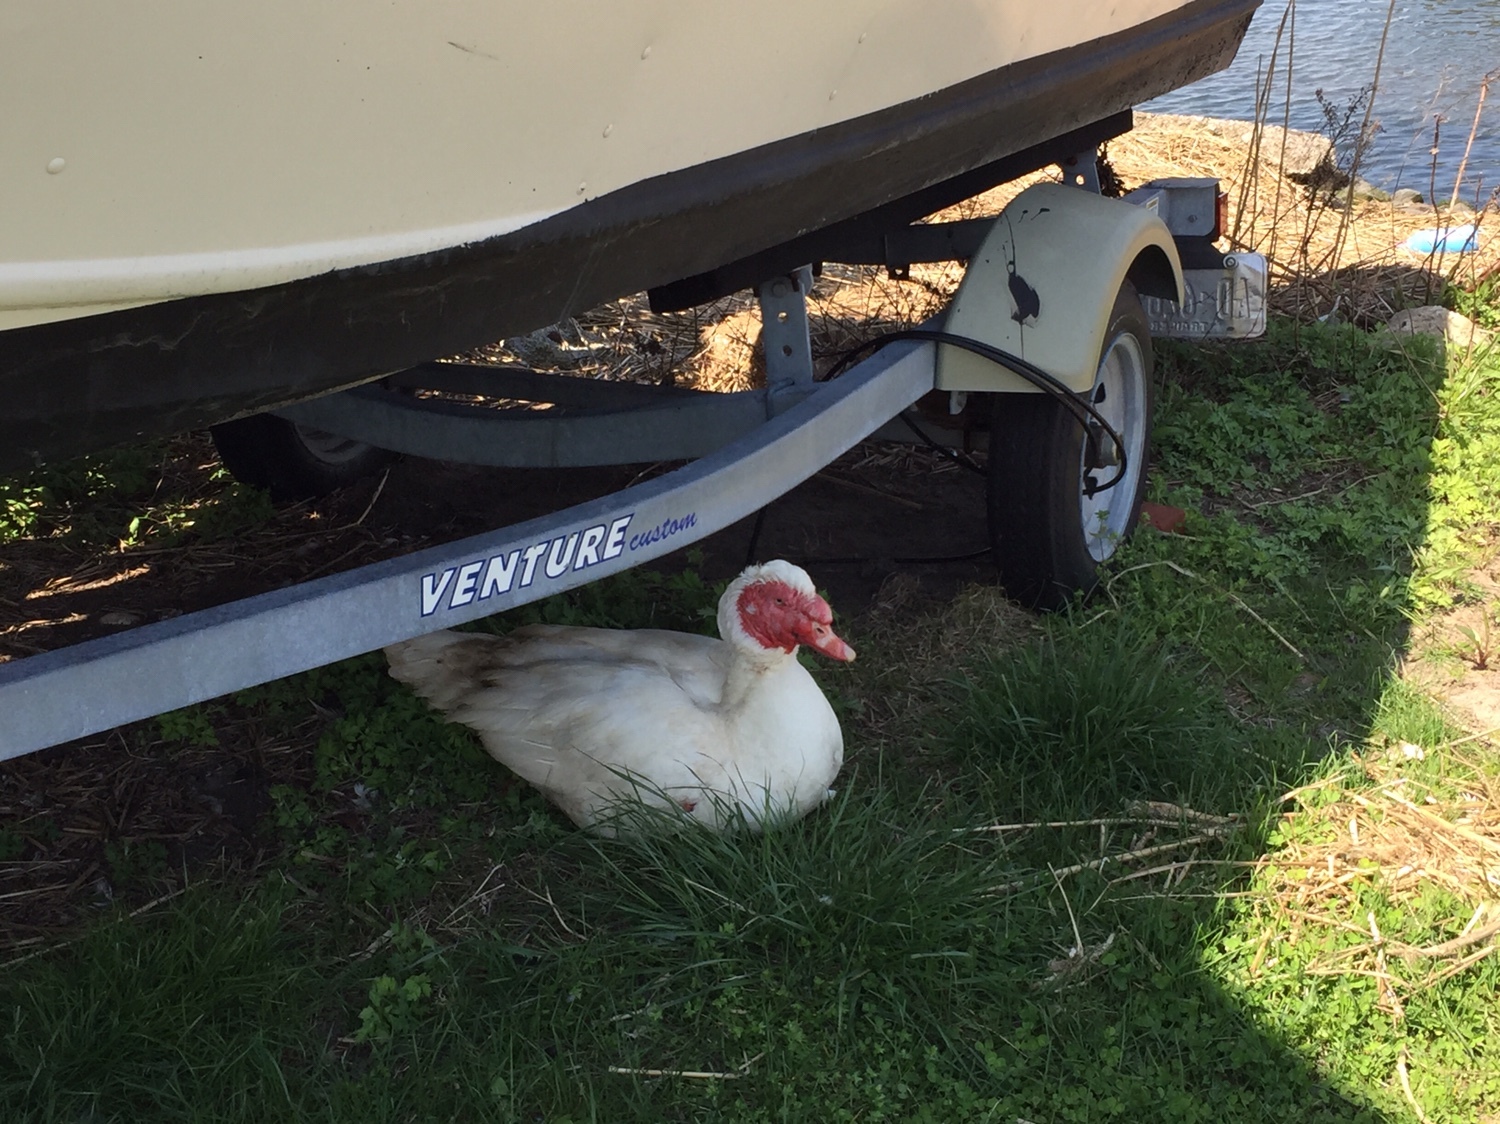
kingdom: Animalia
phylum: Chordata
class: Aves
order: Anseriformes
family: Anatidae
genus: Cairina
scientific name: Cairina moschata
